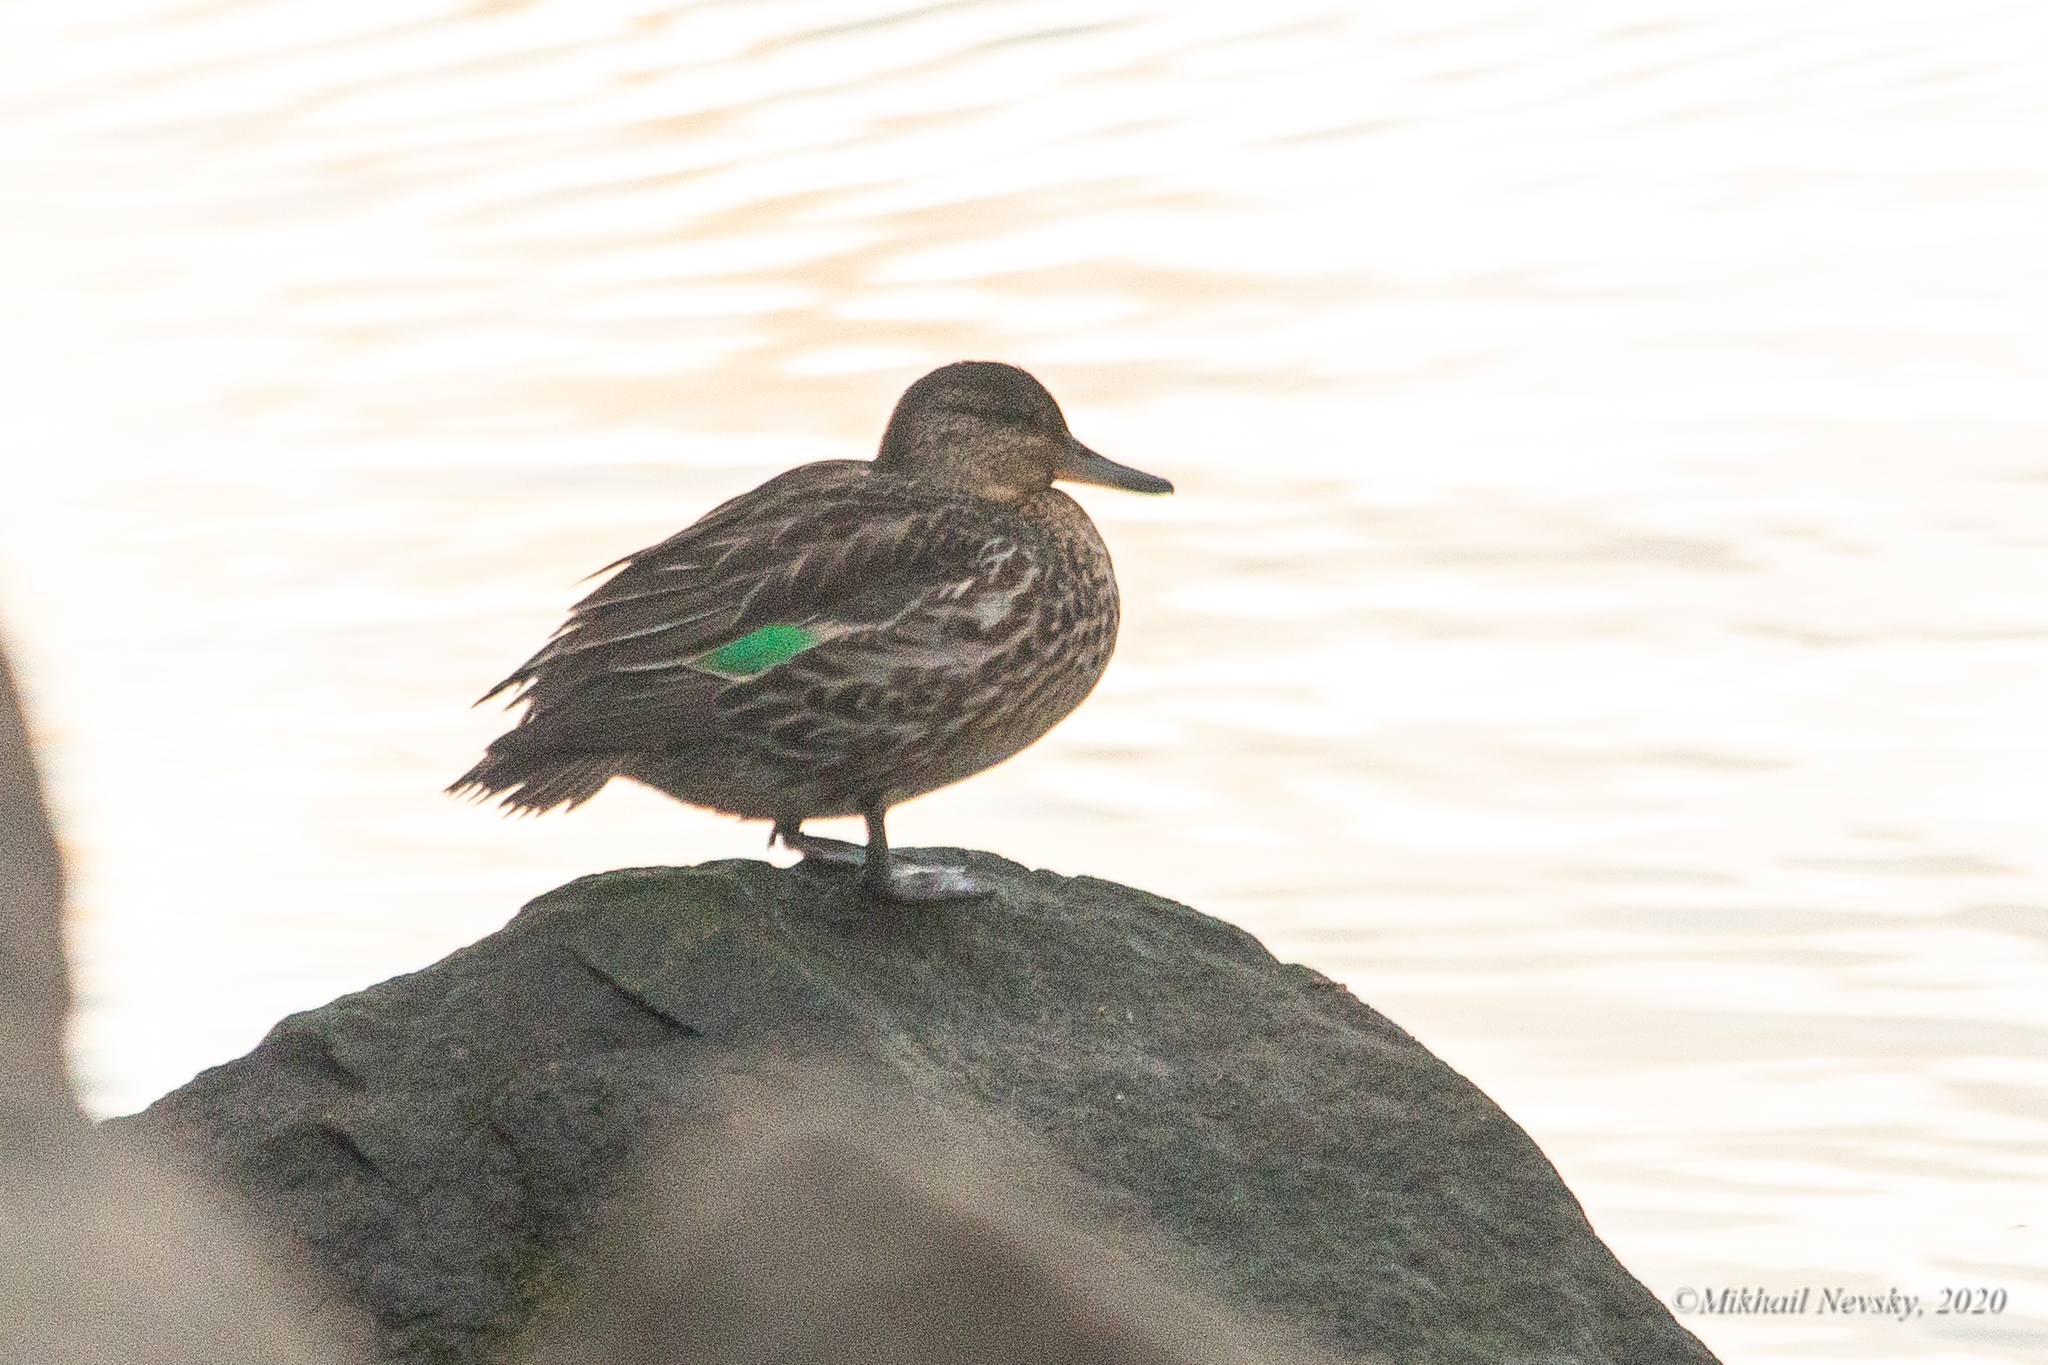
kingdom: Animalia
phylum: Chordata
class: Aves
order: Anseriformes
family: Anatidae
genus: Anas
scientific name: Anas crecca
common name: Eurasian teal
